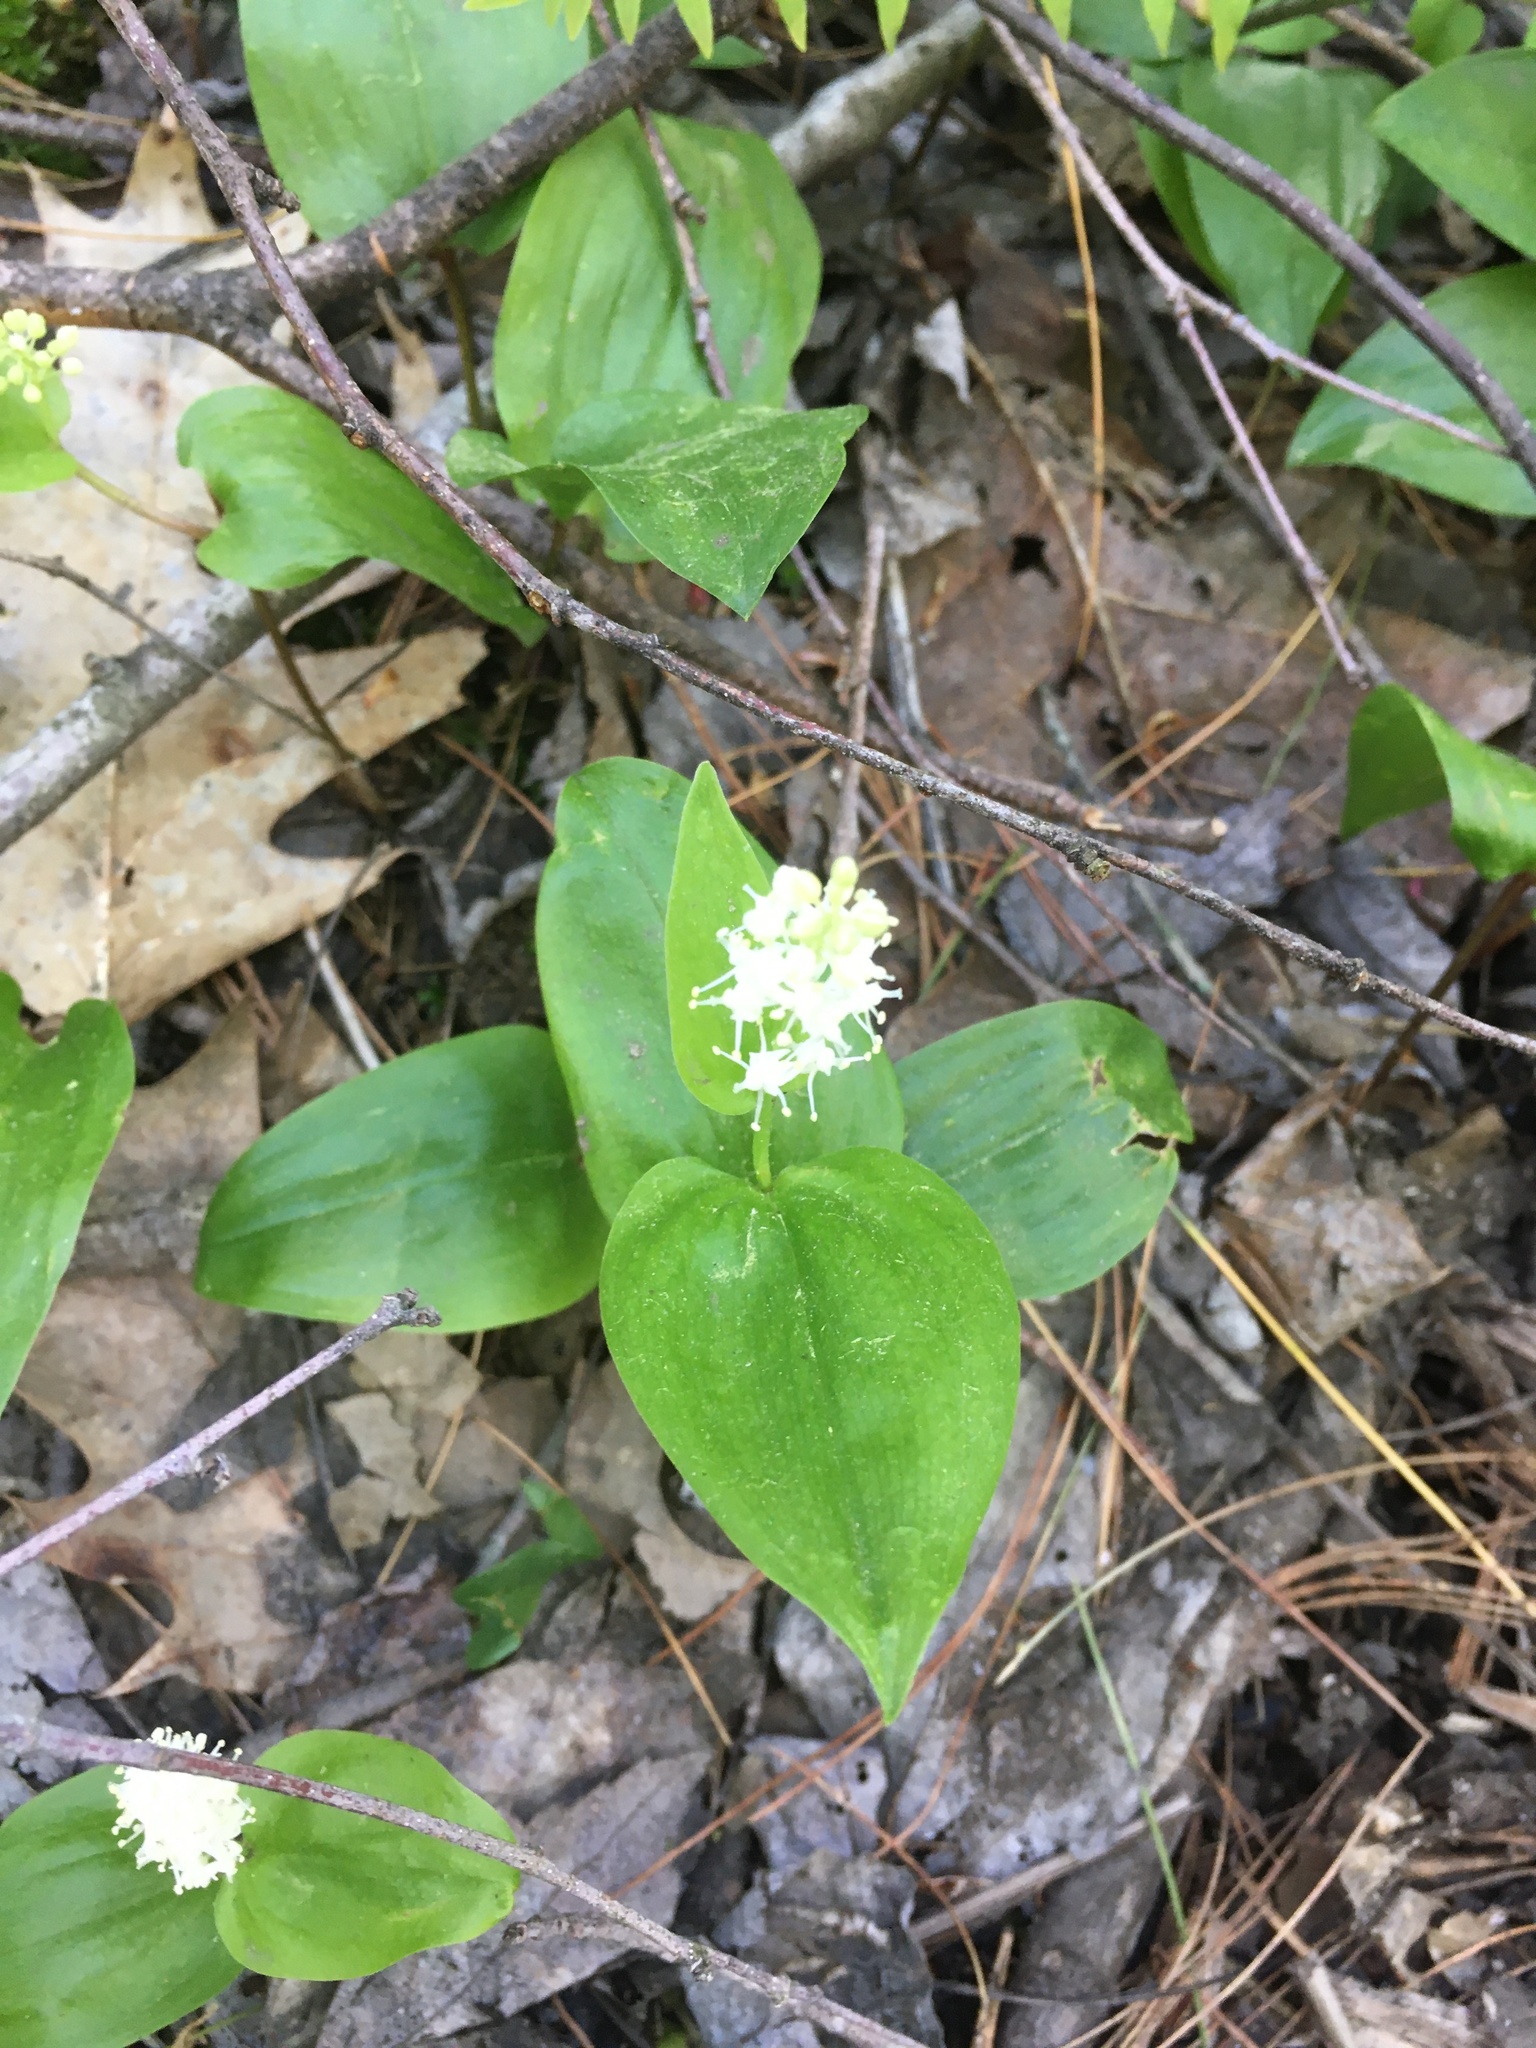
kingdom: Plantae
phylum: Tracheophyta
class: Liliopsida
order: Asparagales
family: Asparagaceae
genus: Maianthemum
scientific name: Maianthemum canadense
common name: False lily-of-the-valley
